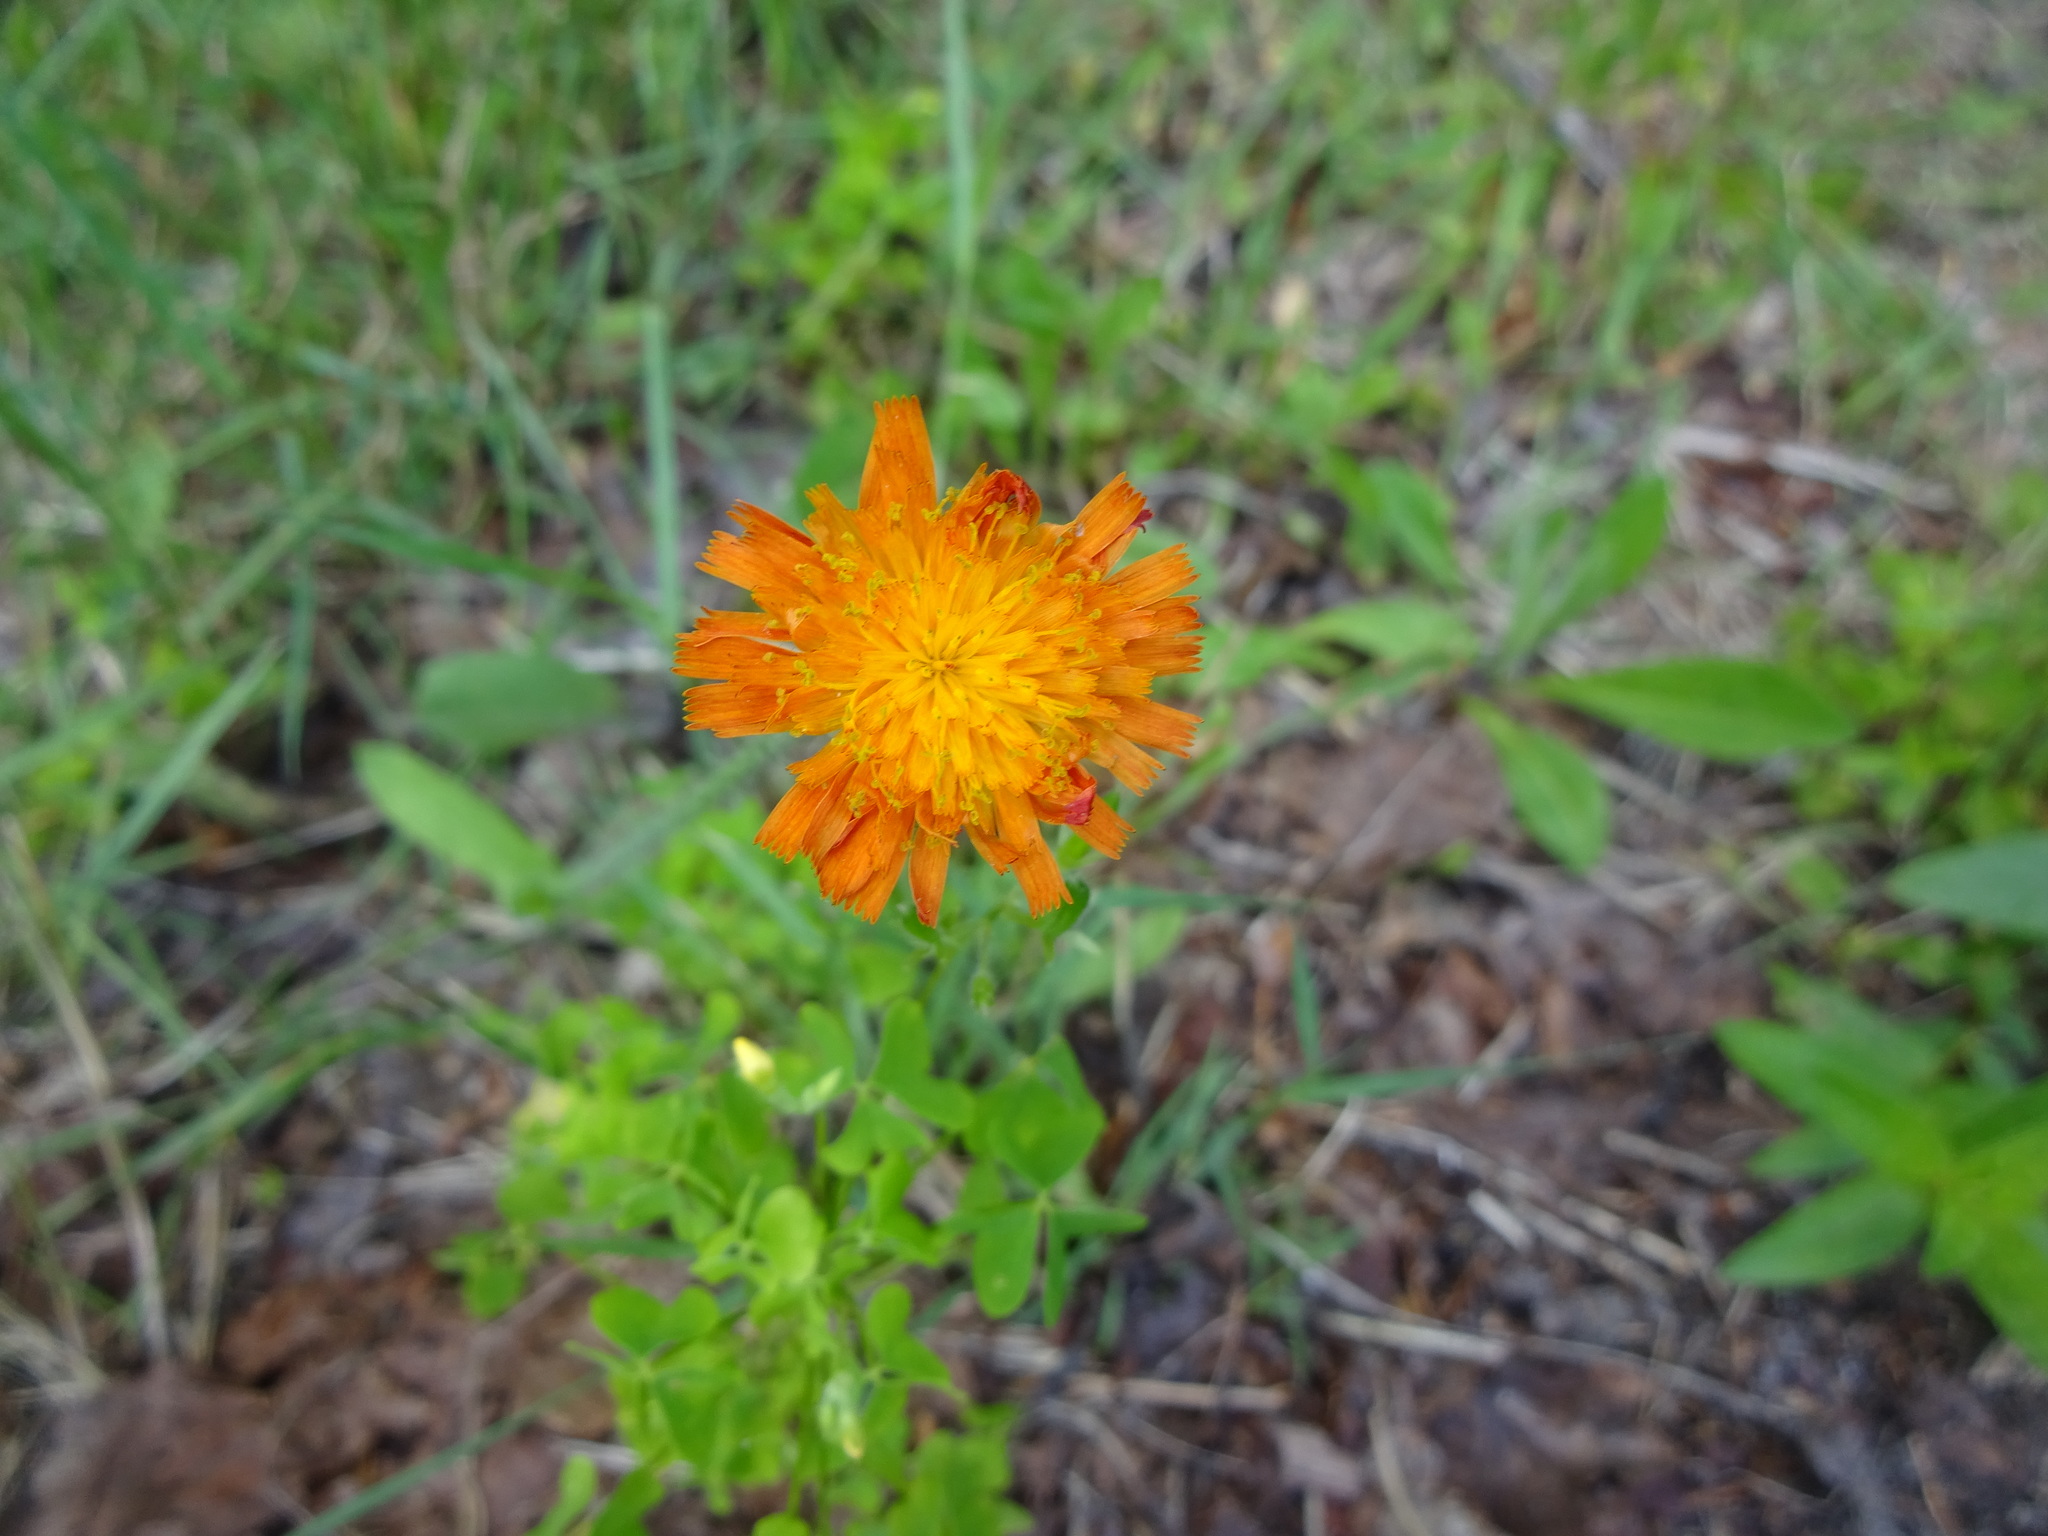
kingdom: Plantae
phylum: Tracheophyta
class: Magnoliopsida
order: Asterales
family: Asteraceae
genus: Pilosella
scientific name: Pilosella aurantiaca
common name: Fox-and-cubs
